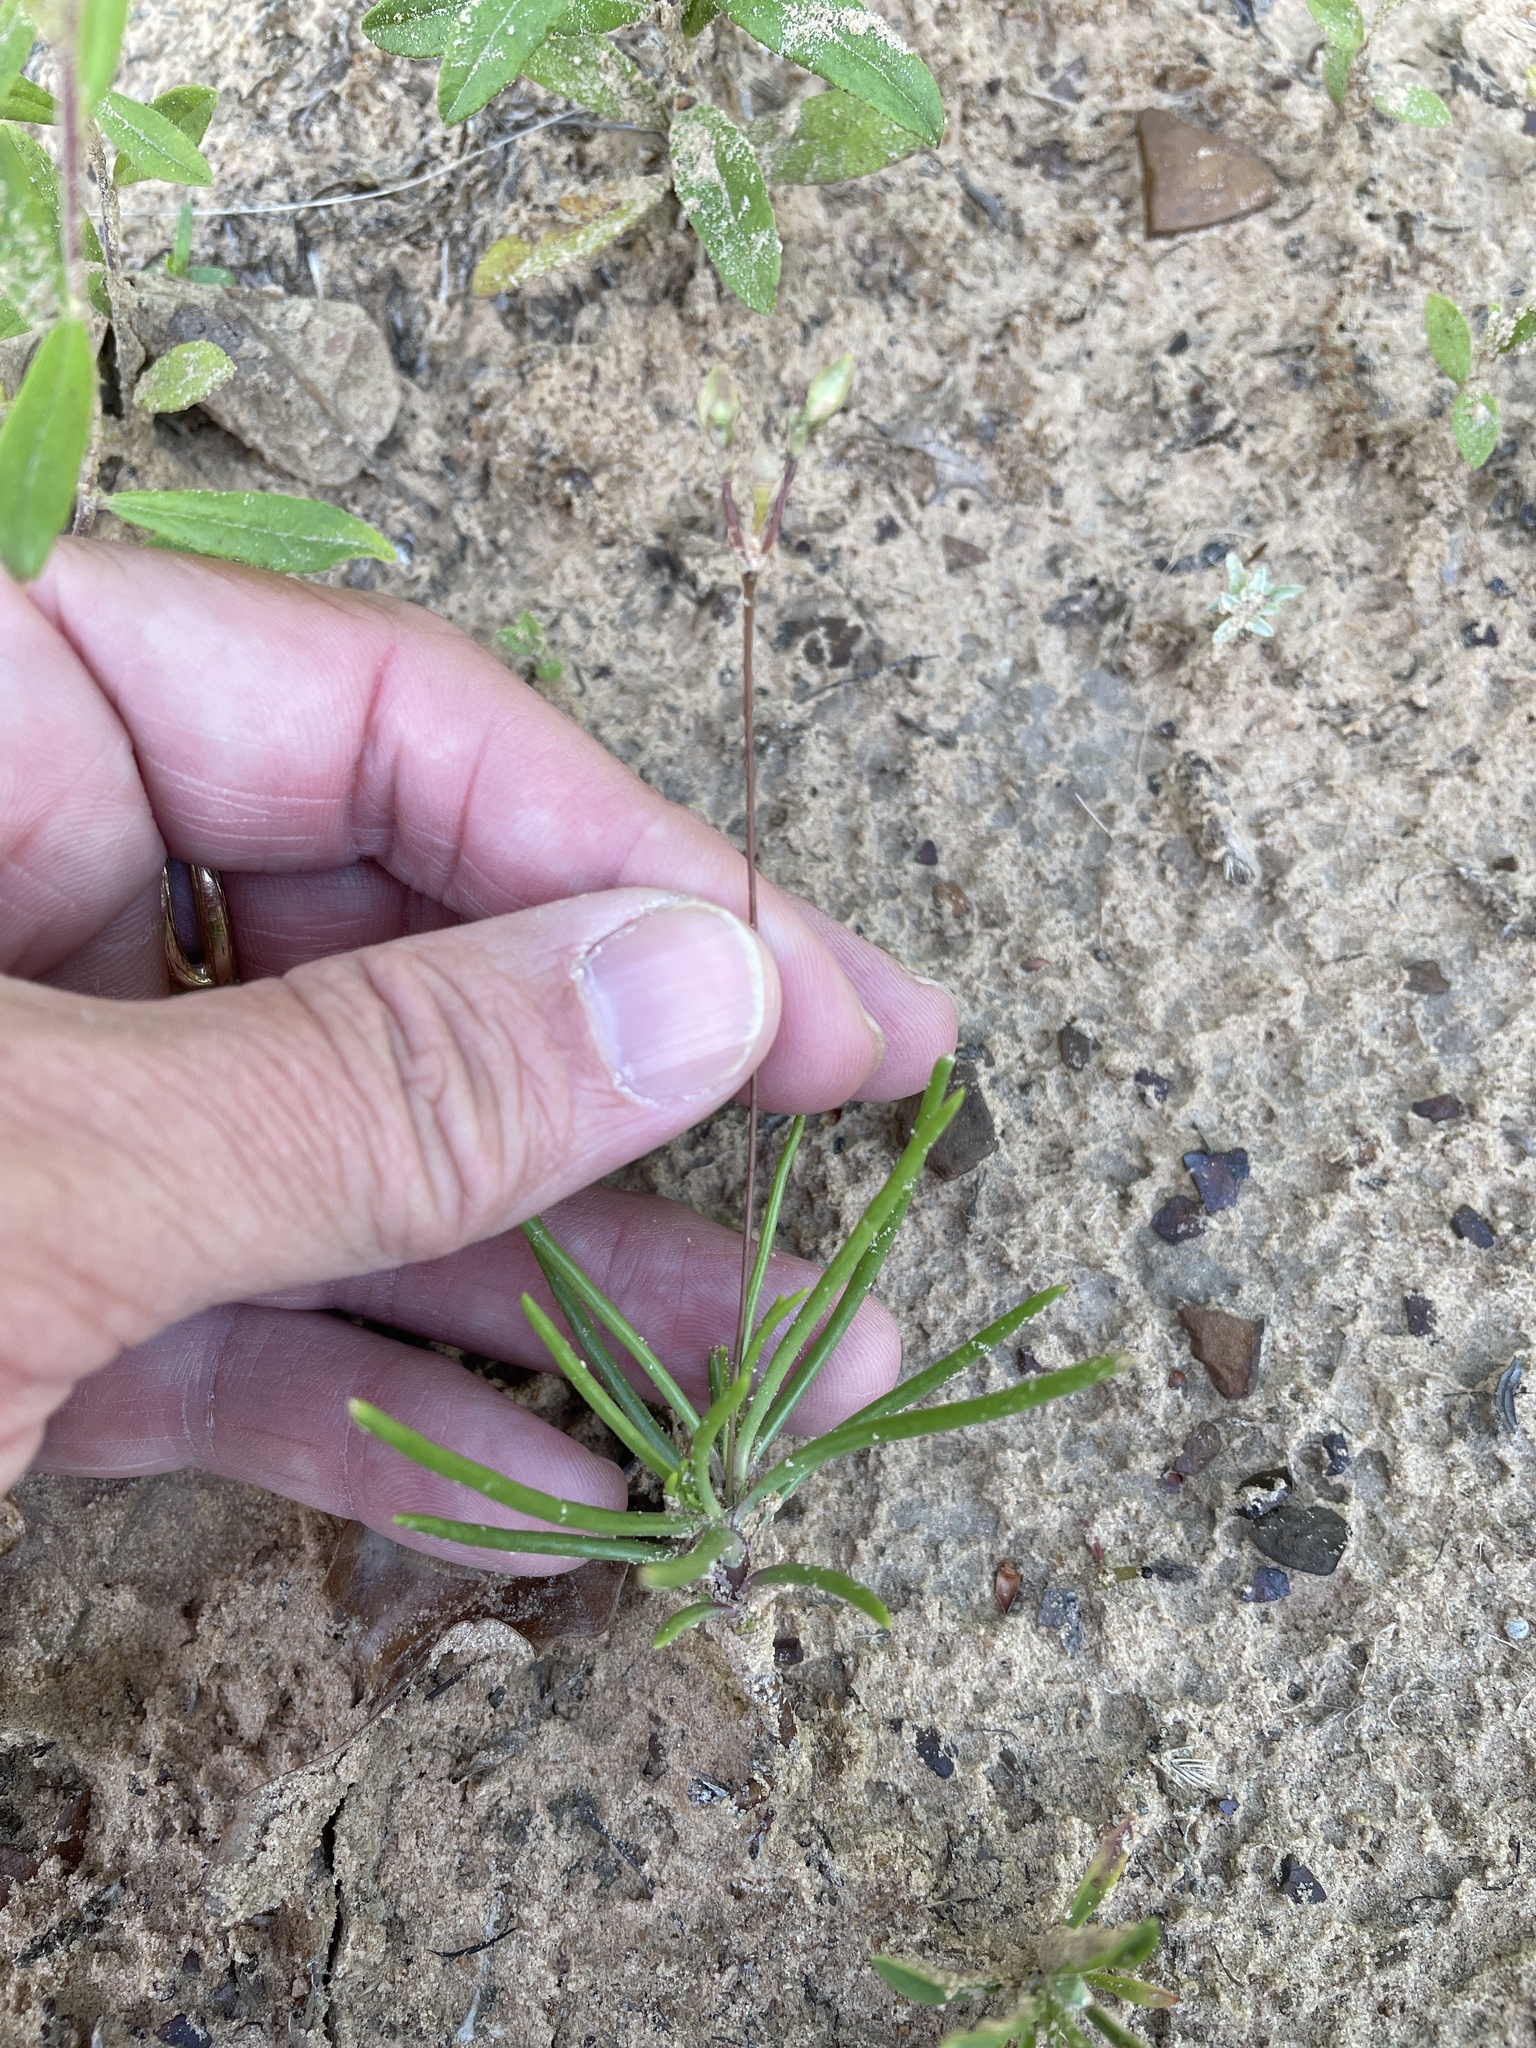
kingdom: Plantae
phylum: Tracheophyta
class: Magnoliopsida
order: Caryophyllales
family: Montiaceae
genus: Phemeranthus
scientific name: Phemeranthus parviflorus
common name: Sunbright
